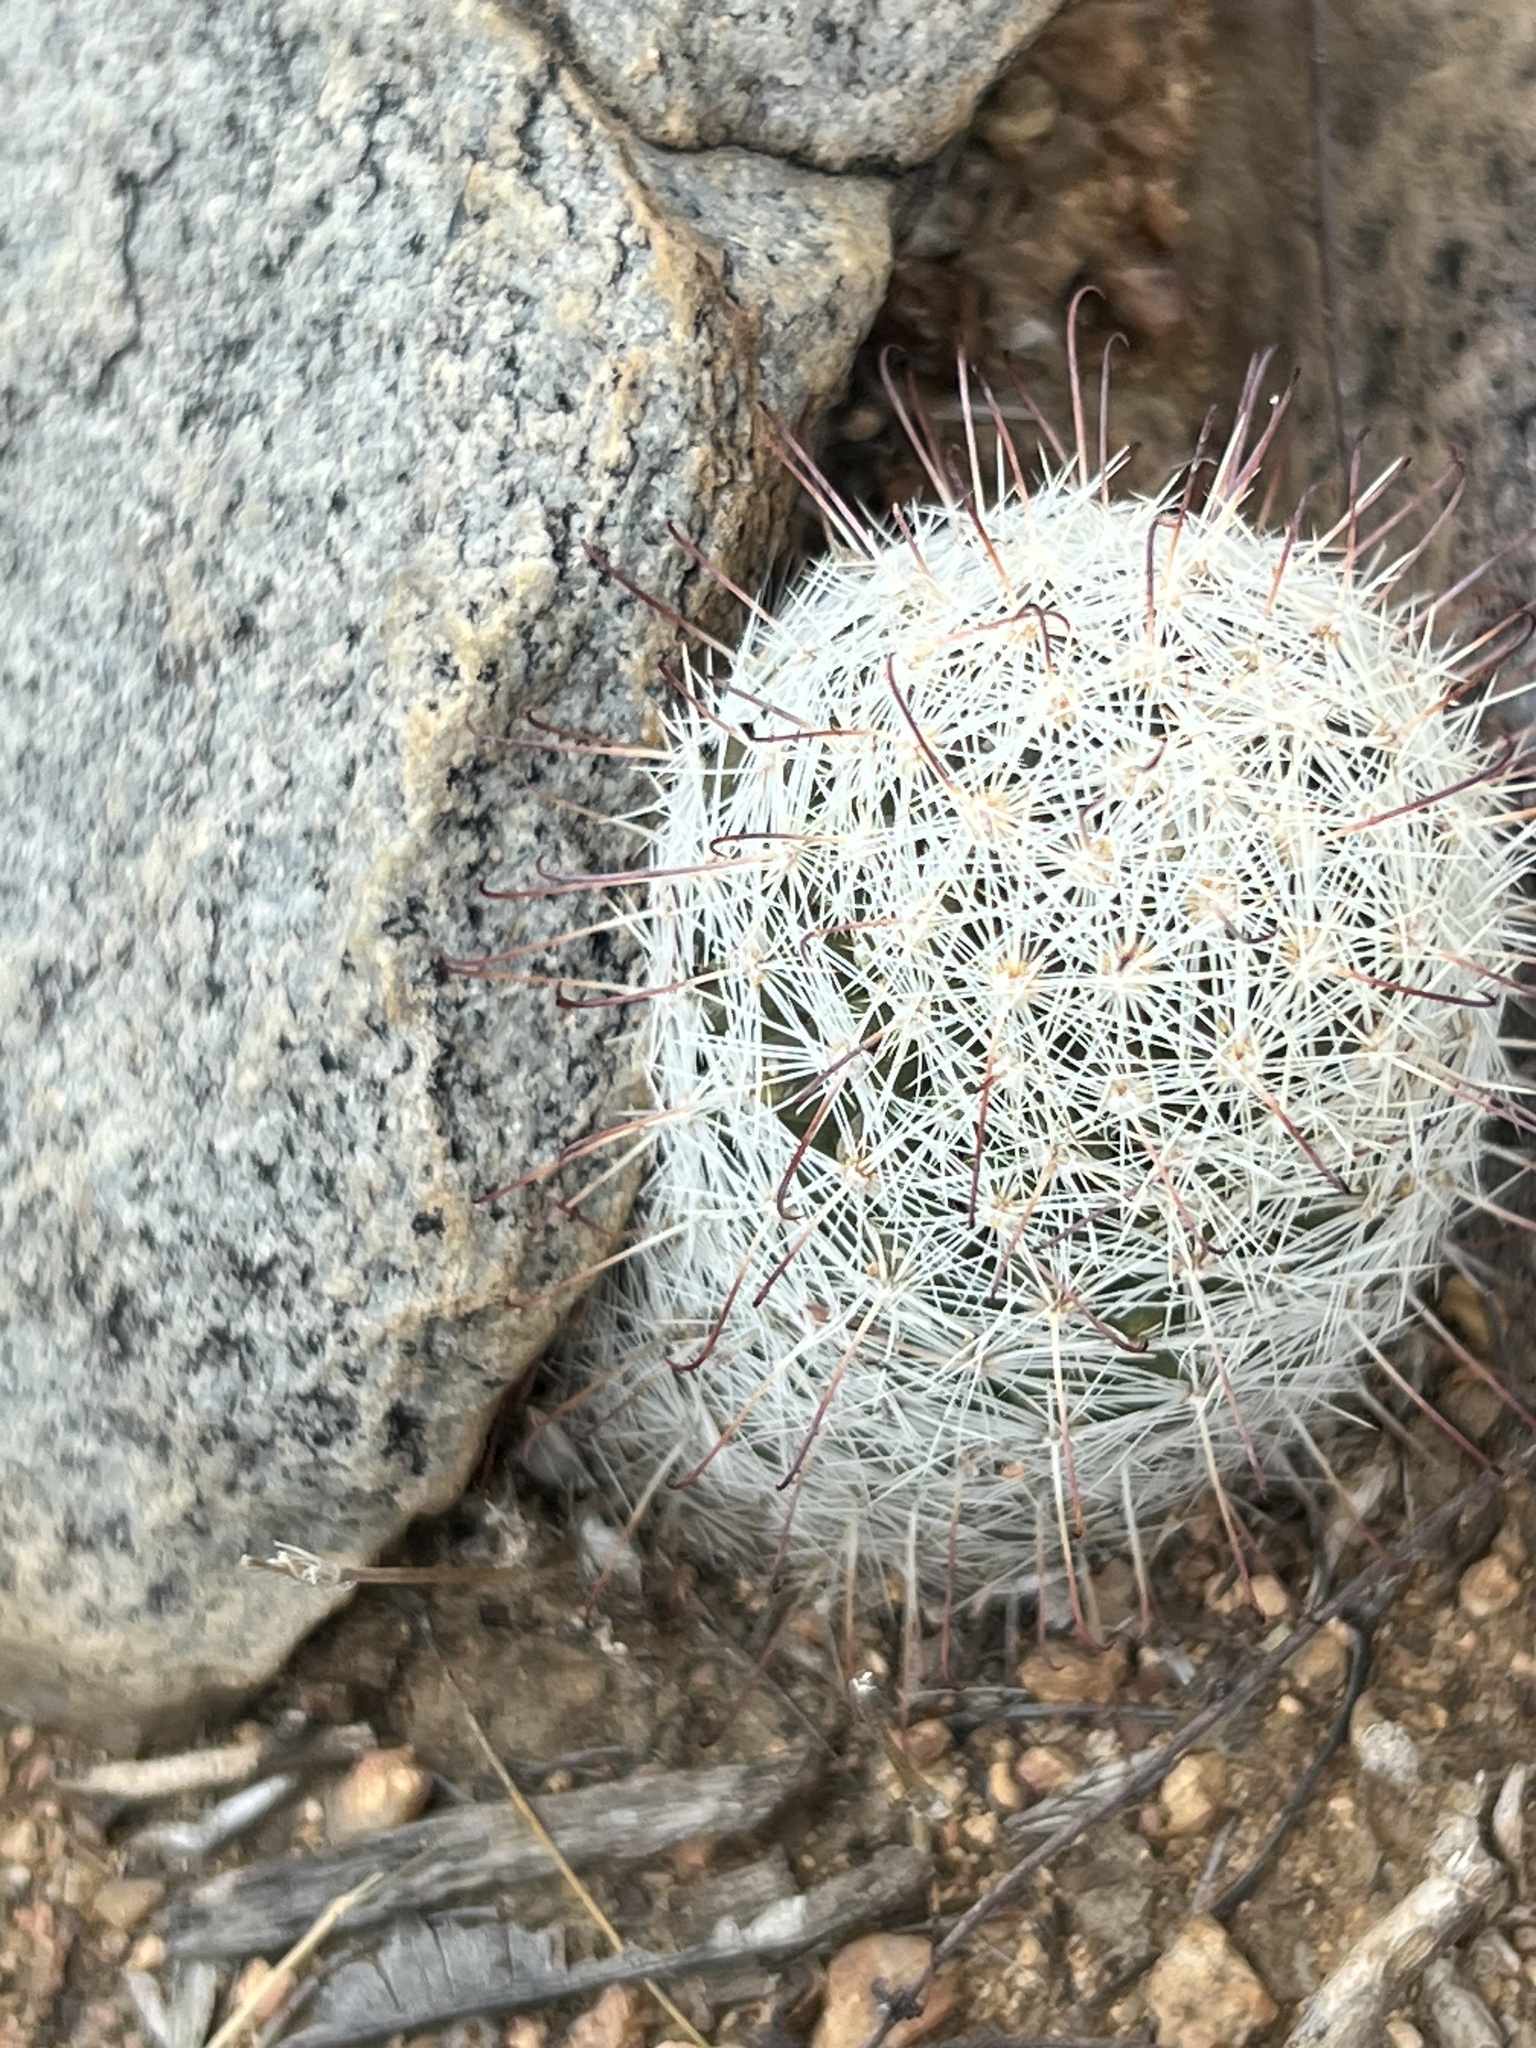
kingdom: Plantae
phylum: Tracheophyta
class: Magnoliopsida
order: Caryophyllales
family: Cactaceae
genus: Cochemiea
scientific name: Cochemiea grahamii
